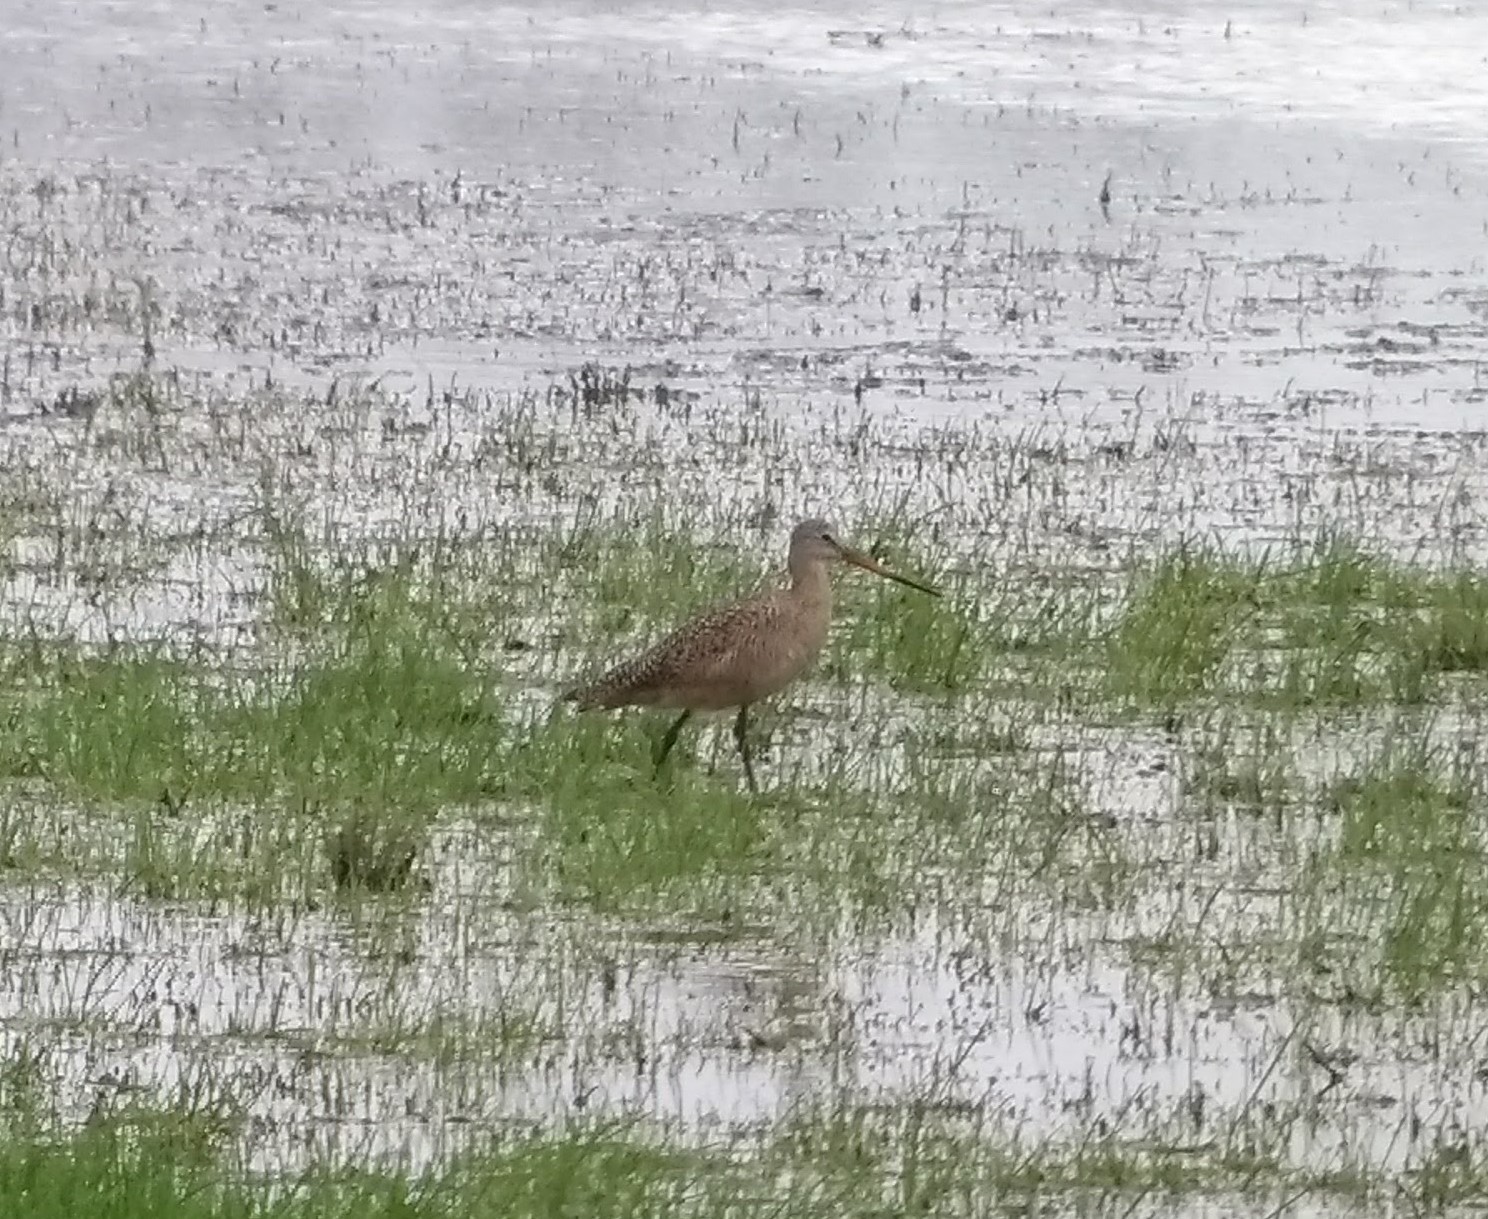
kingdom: Animalia
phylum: Chordata
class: Aves
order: Charadriiformes
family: Scolopacidae
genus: Limosa
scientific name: Limosa fedoa
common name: Marbled godwit
